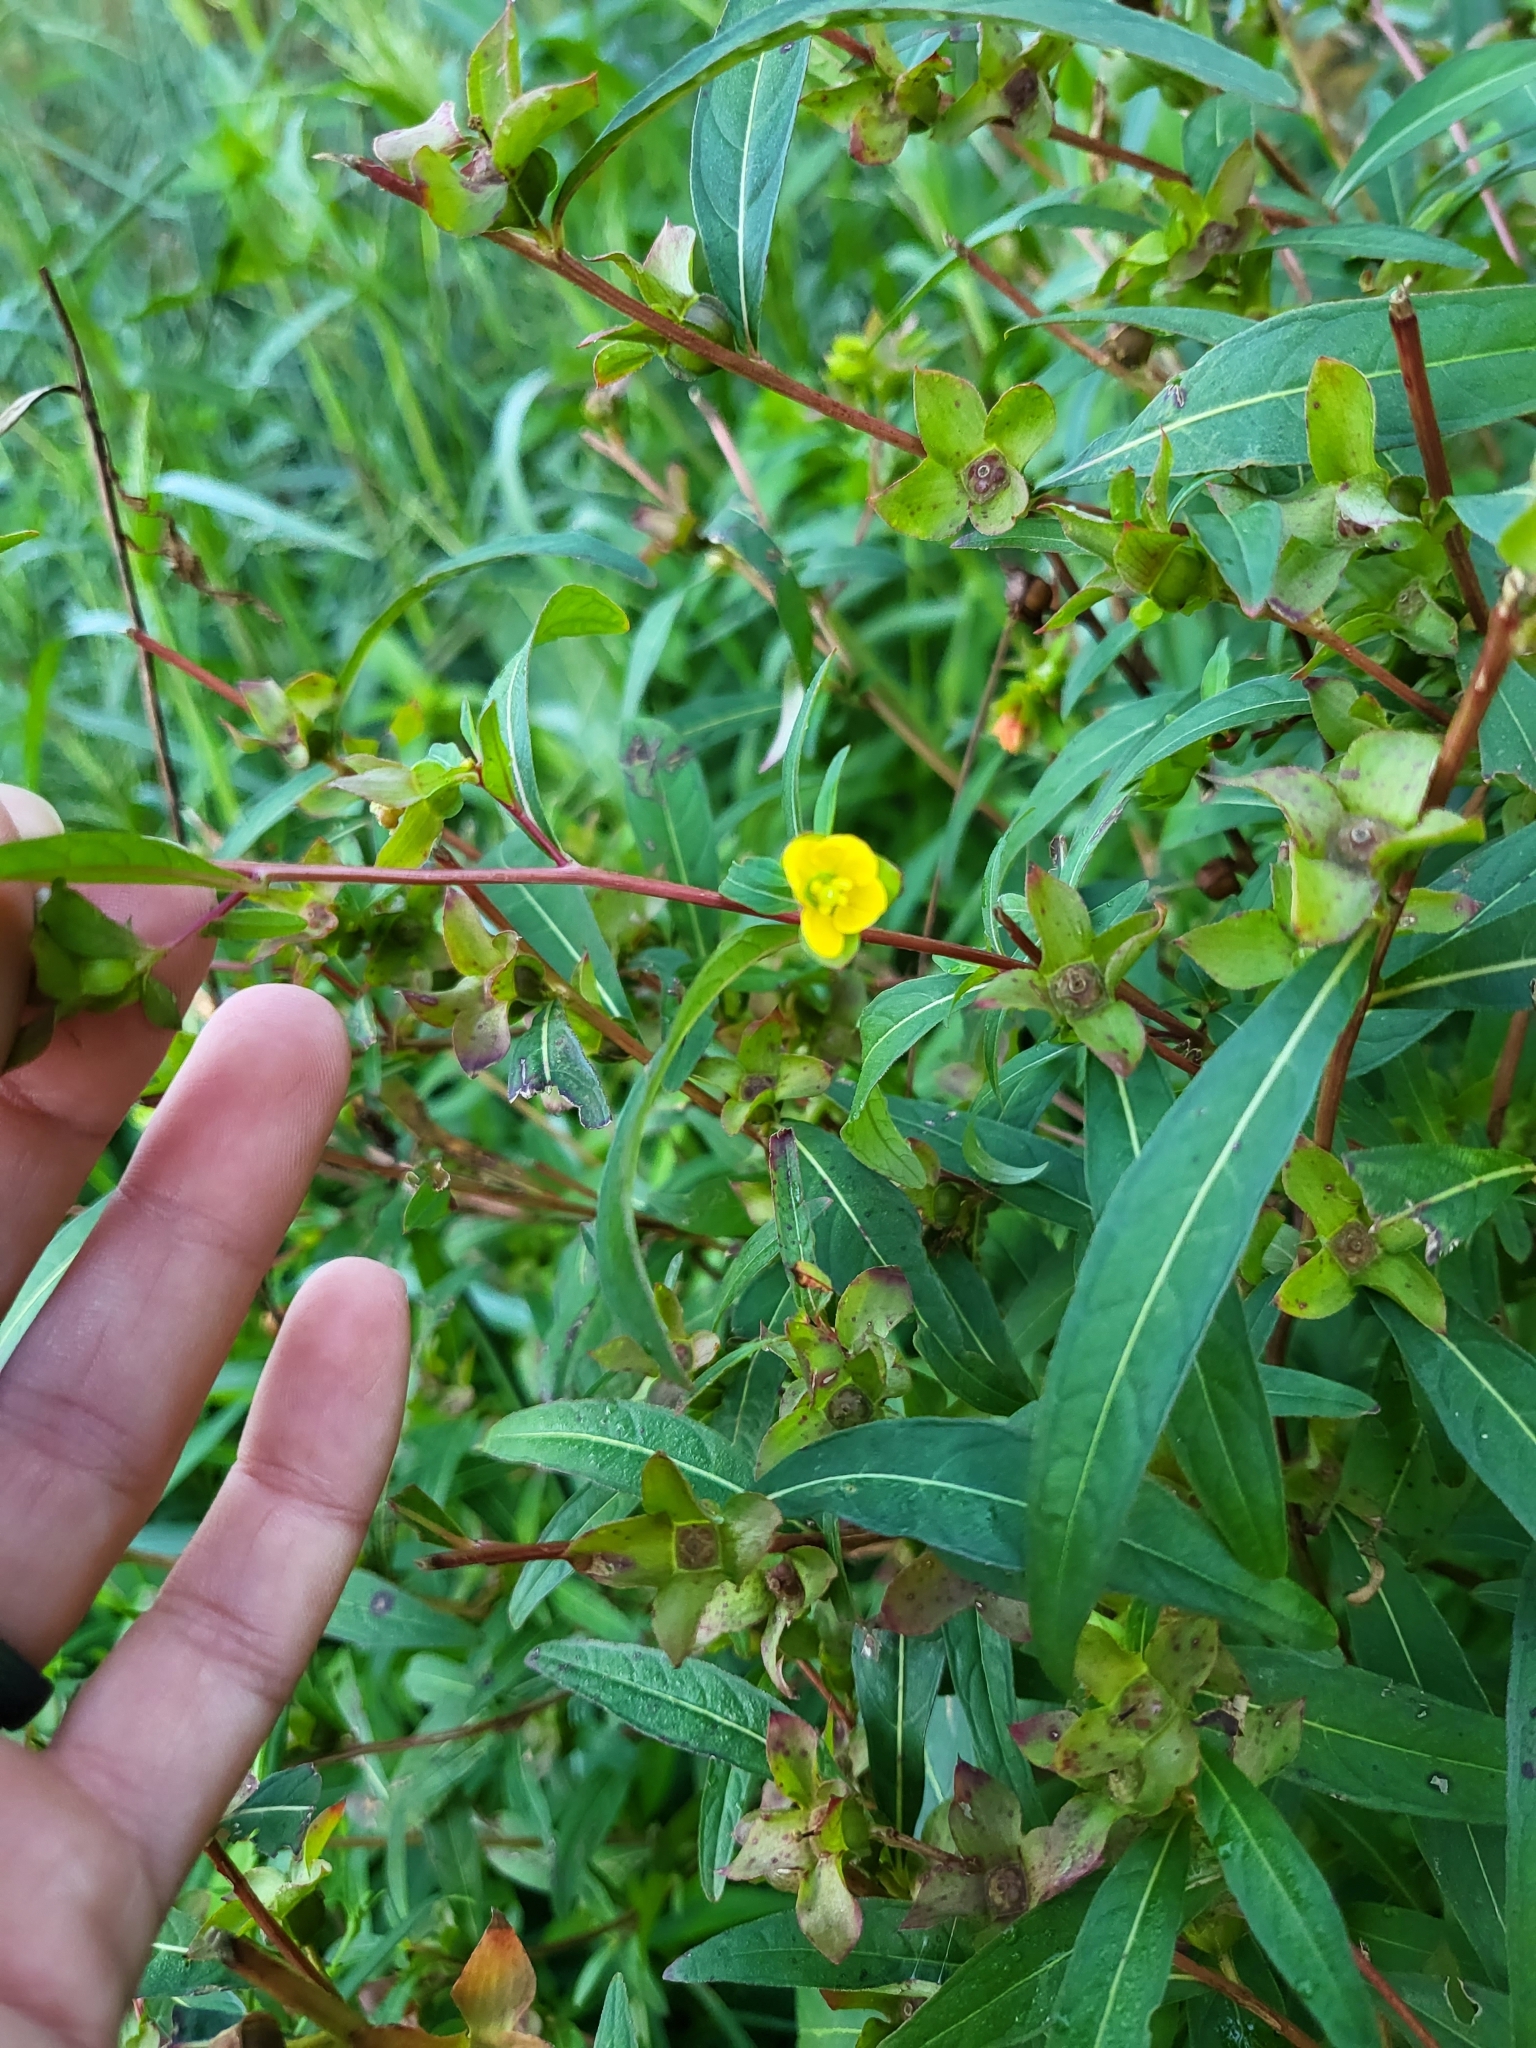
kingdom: Plantae
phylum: Tracheophyta
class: Magnoliopsida
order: Myrtales
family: Onagraceae
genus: Ludwigia
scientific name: Ludwigia alternifolia
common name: Rattlebox
